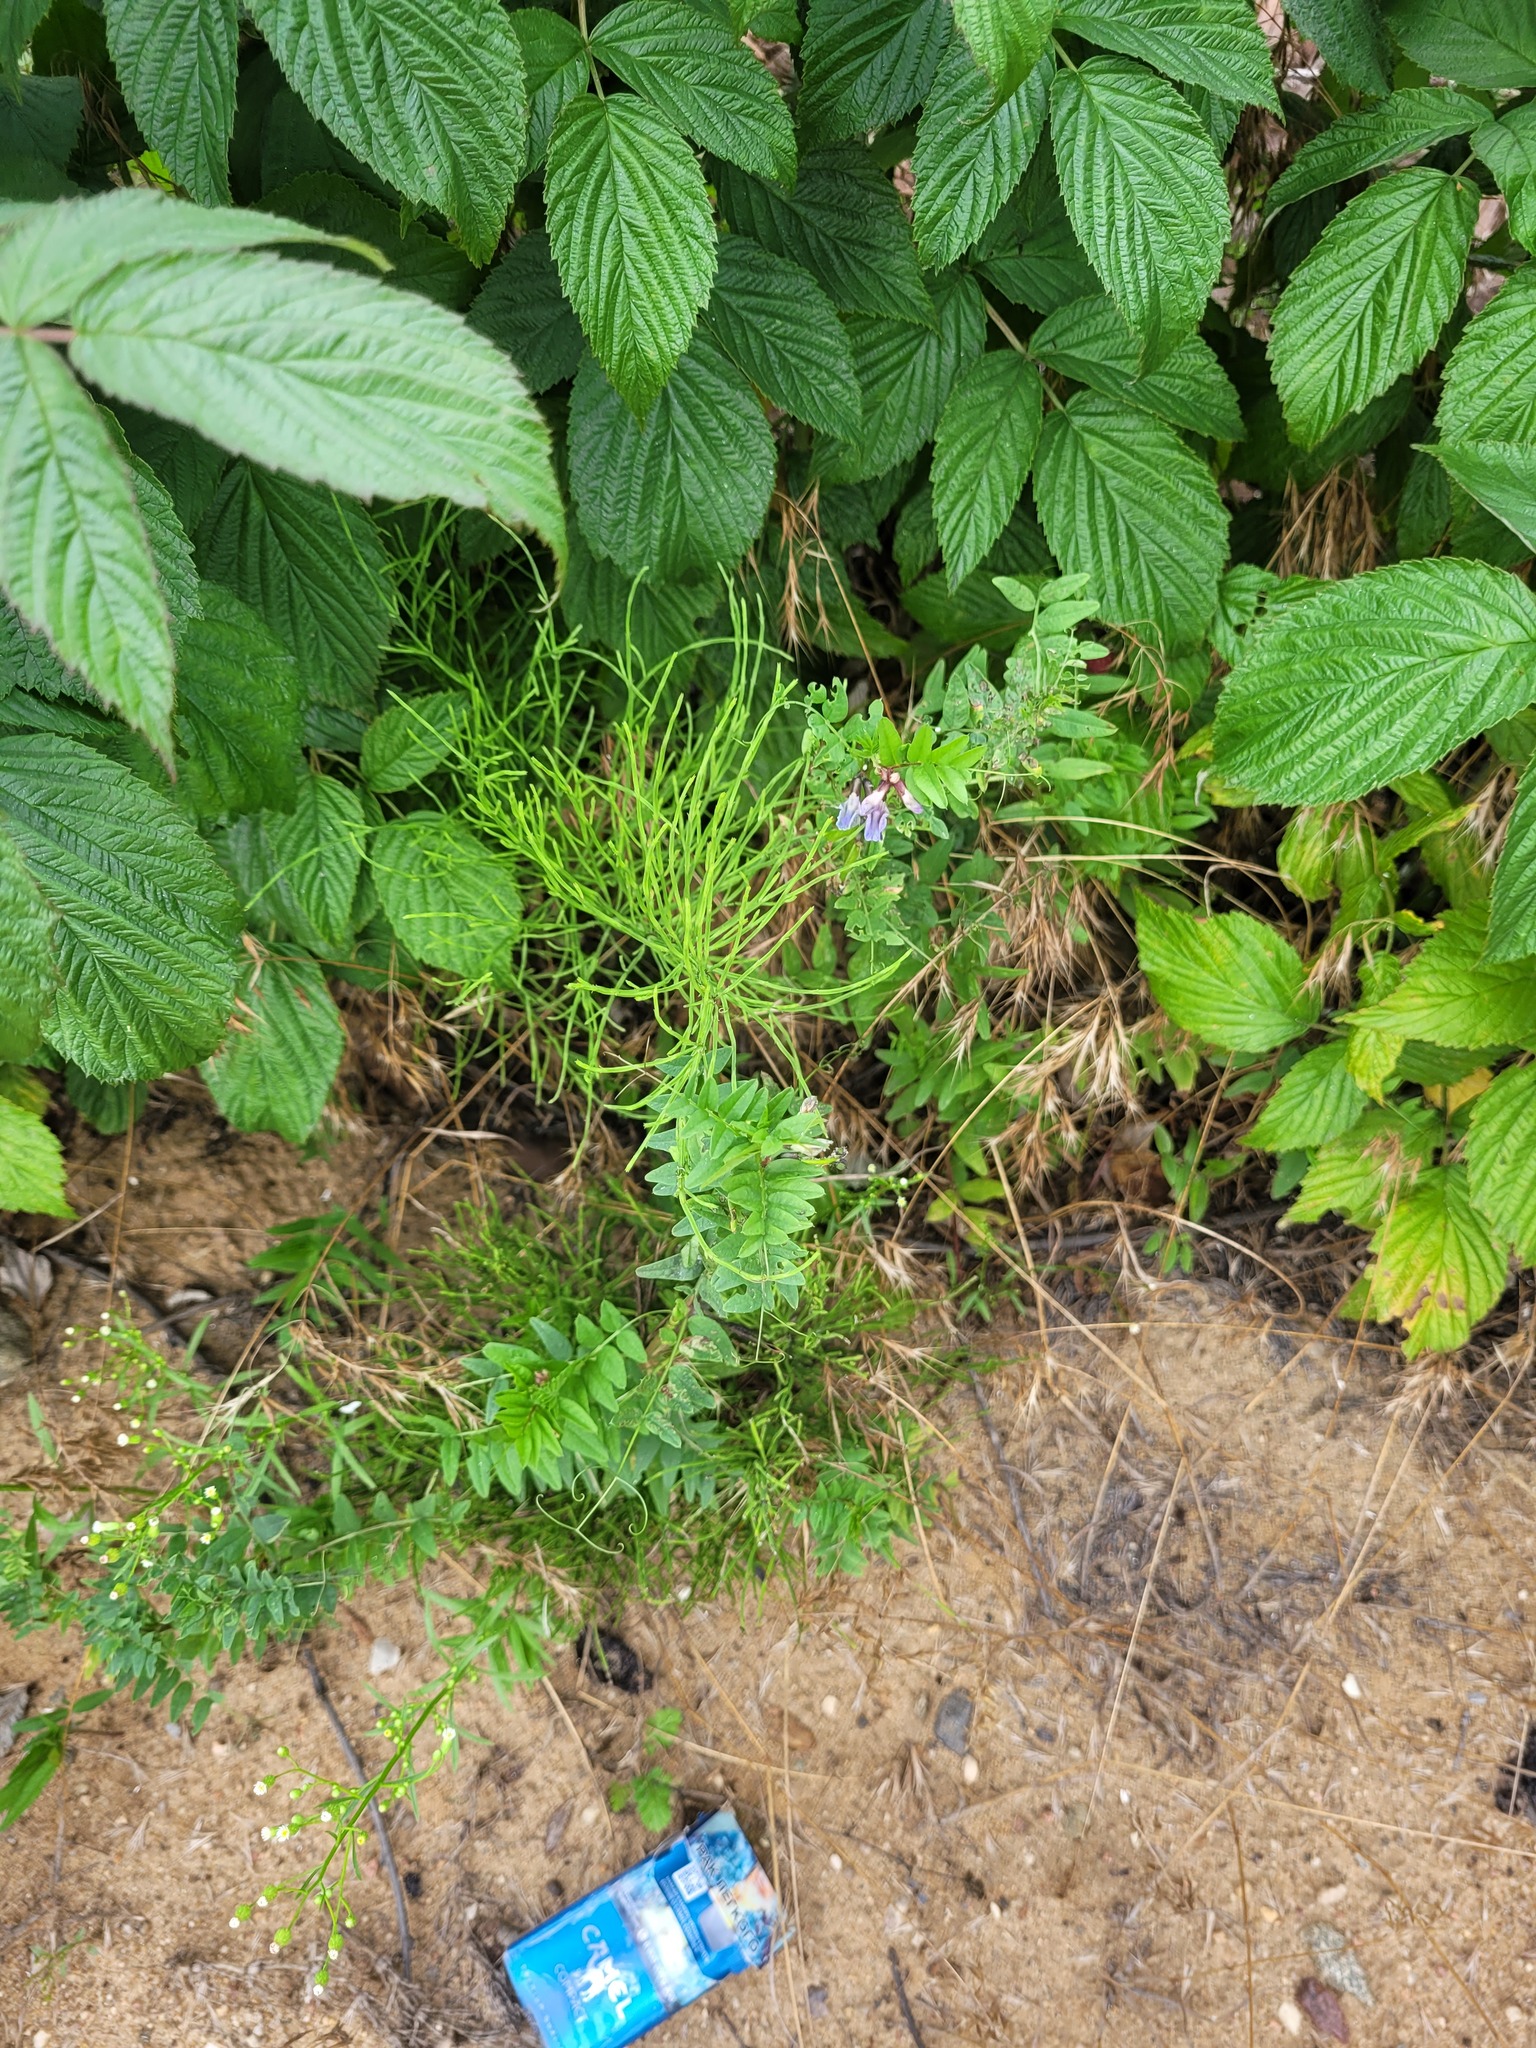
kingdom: Plantae
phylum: Tracheophyta
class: Magnoliopsida
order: Fabales
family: Fabaceae
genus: Vicia
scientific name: Vicia sepium
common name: Bush vetch
